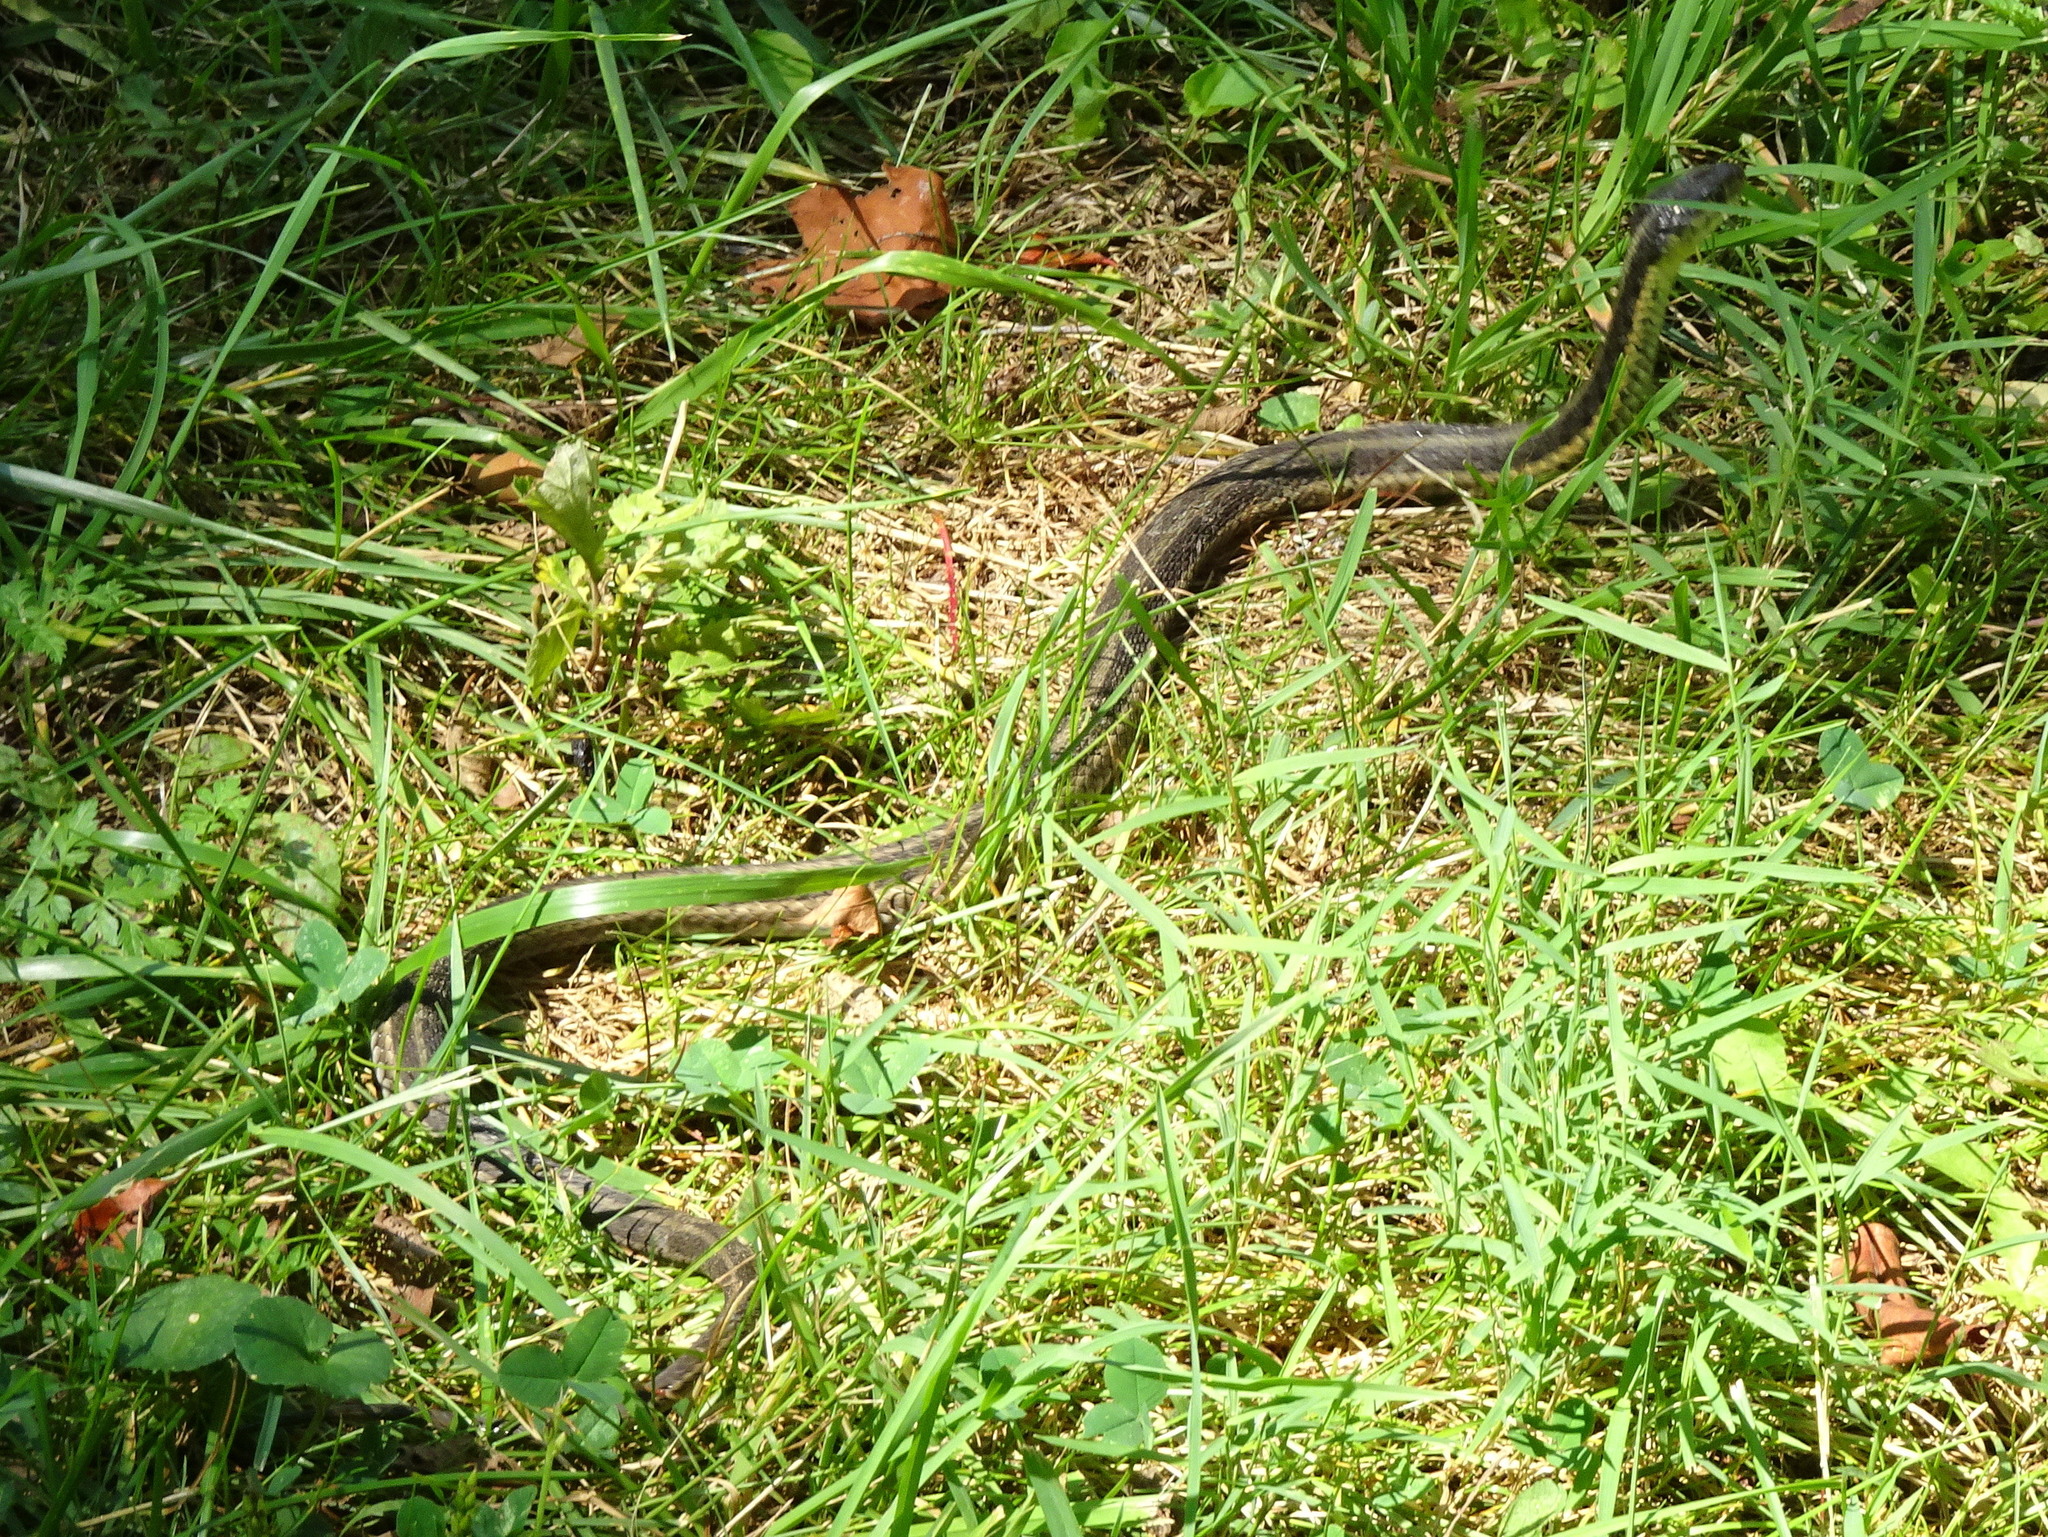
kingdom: Animalia
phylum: Chordata
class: Squamata
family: Colubridae
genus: Thamnophis
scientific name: Thamnophis sirtalis
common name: Common garter snake
